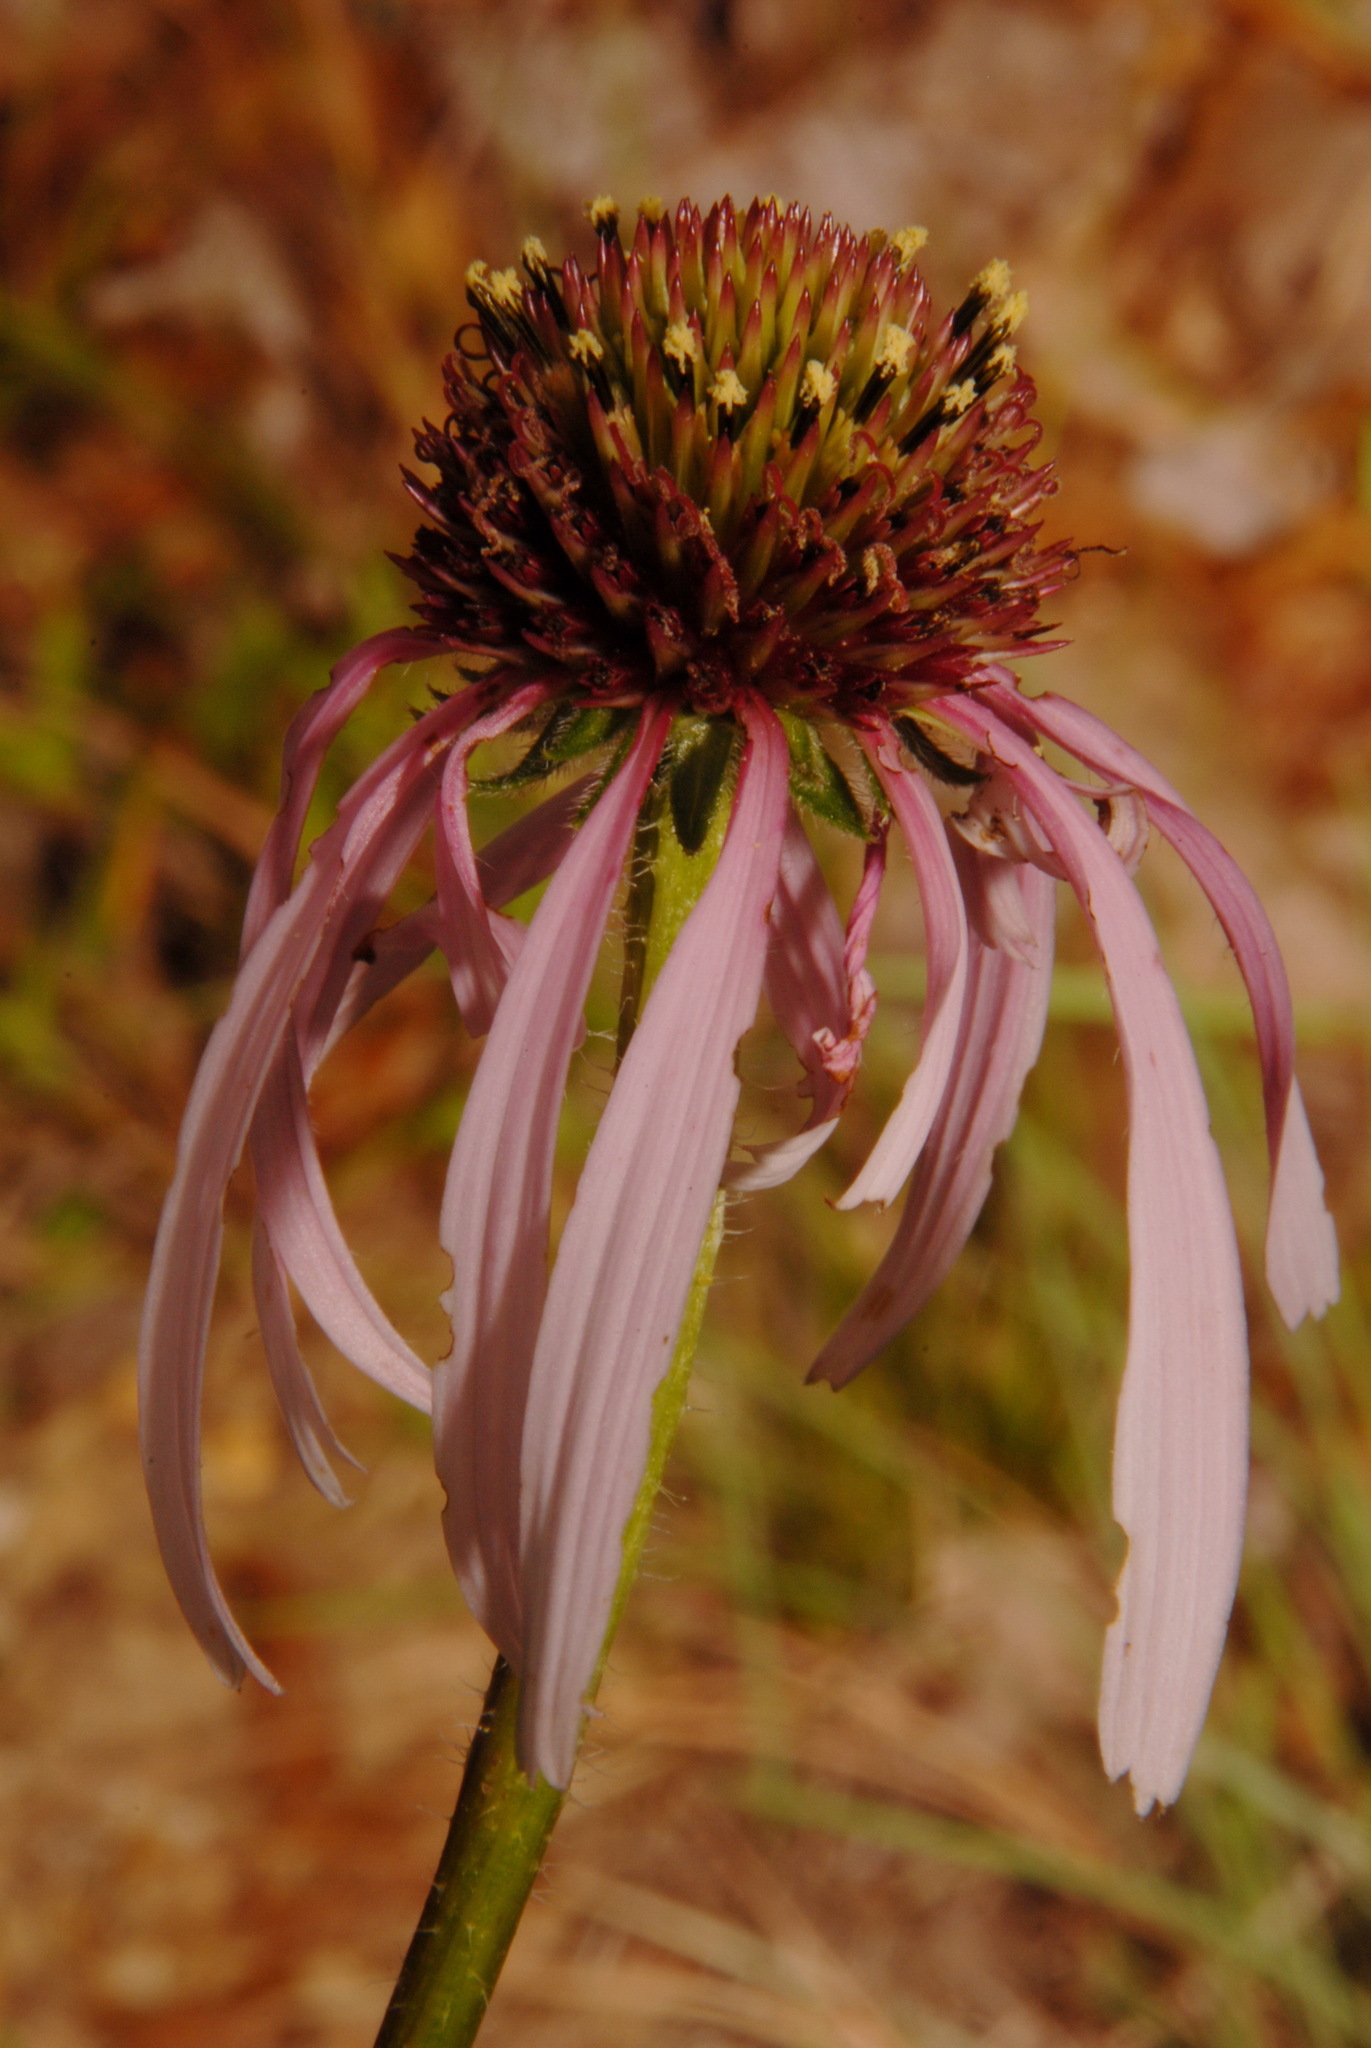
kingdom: Plantae
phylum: Tracheophyta
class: Magnoliopsida
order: Asterales
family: Asteraceae
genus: Echinacea
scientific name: Echinacea pallida
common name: Pale echinacea
